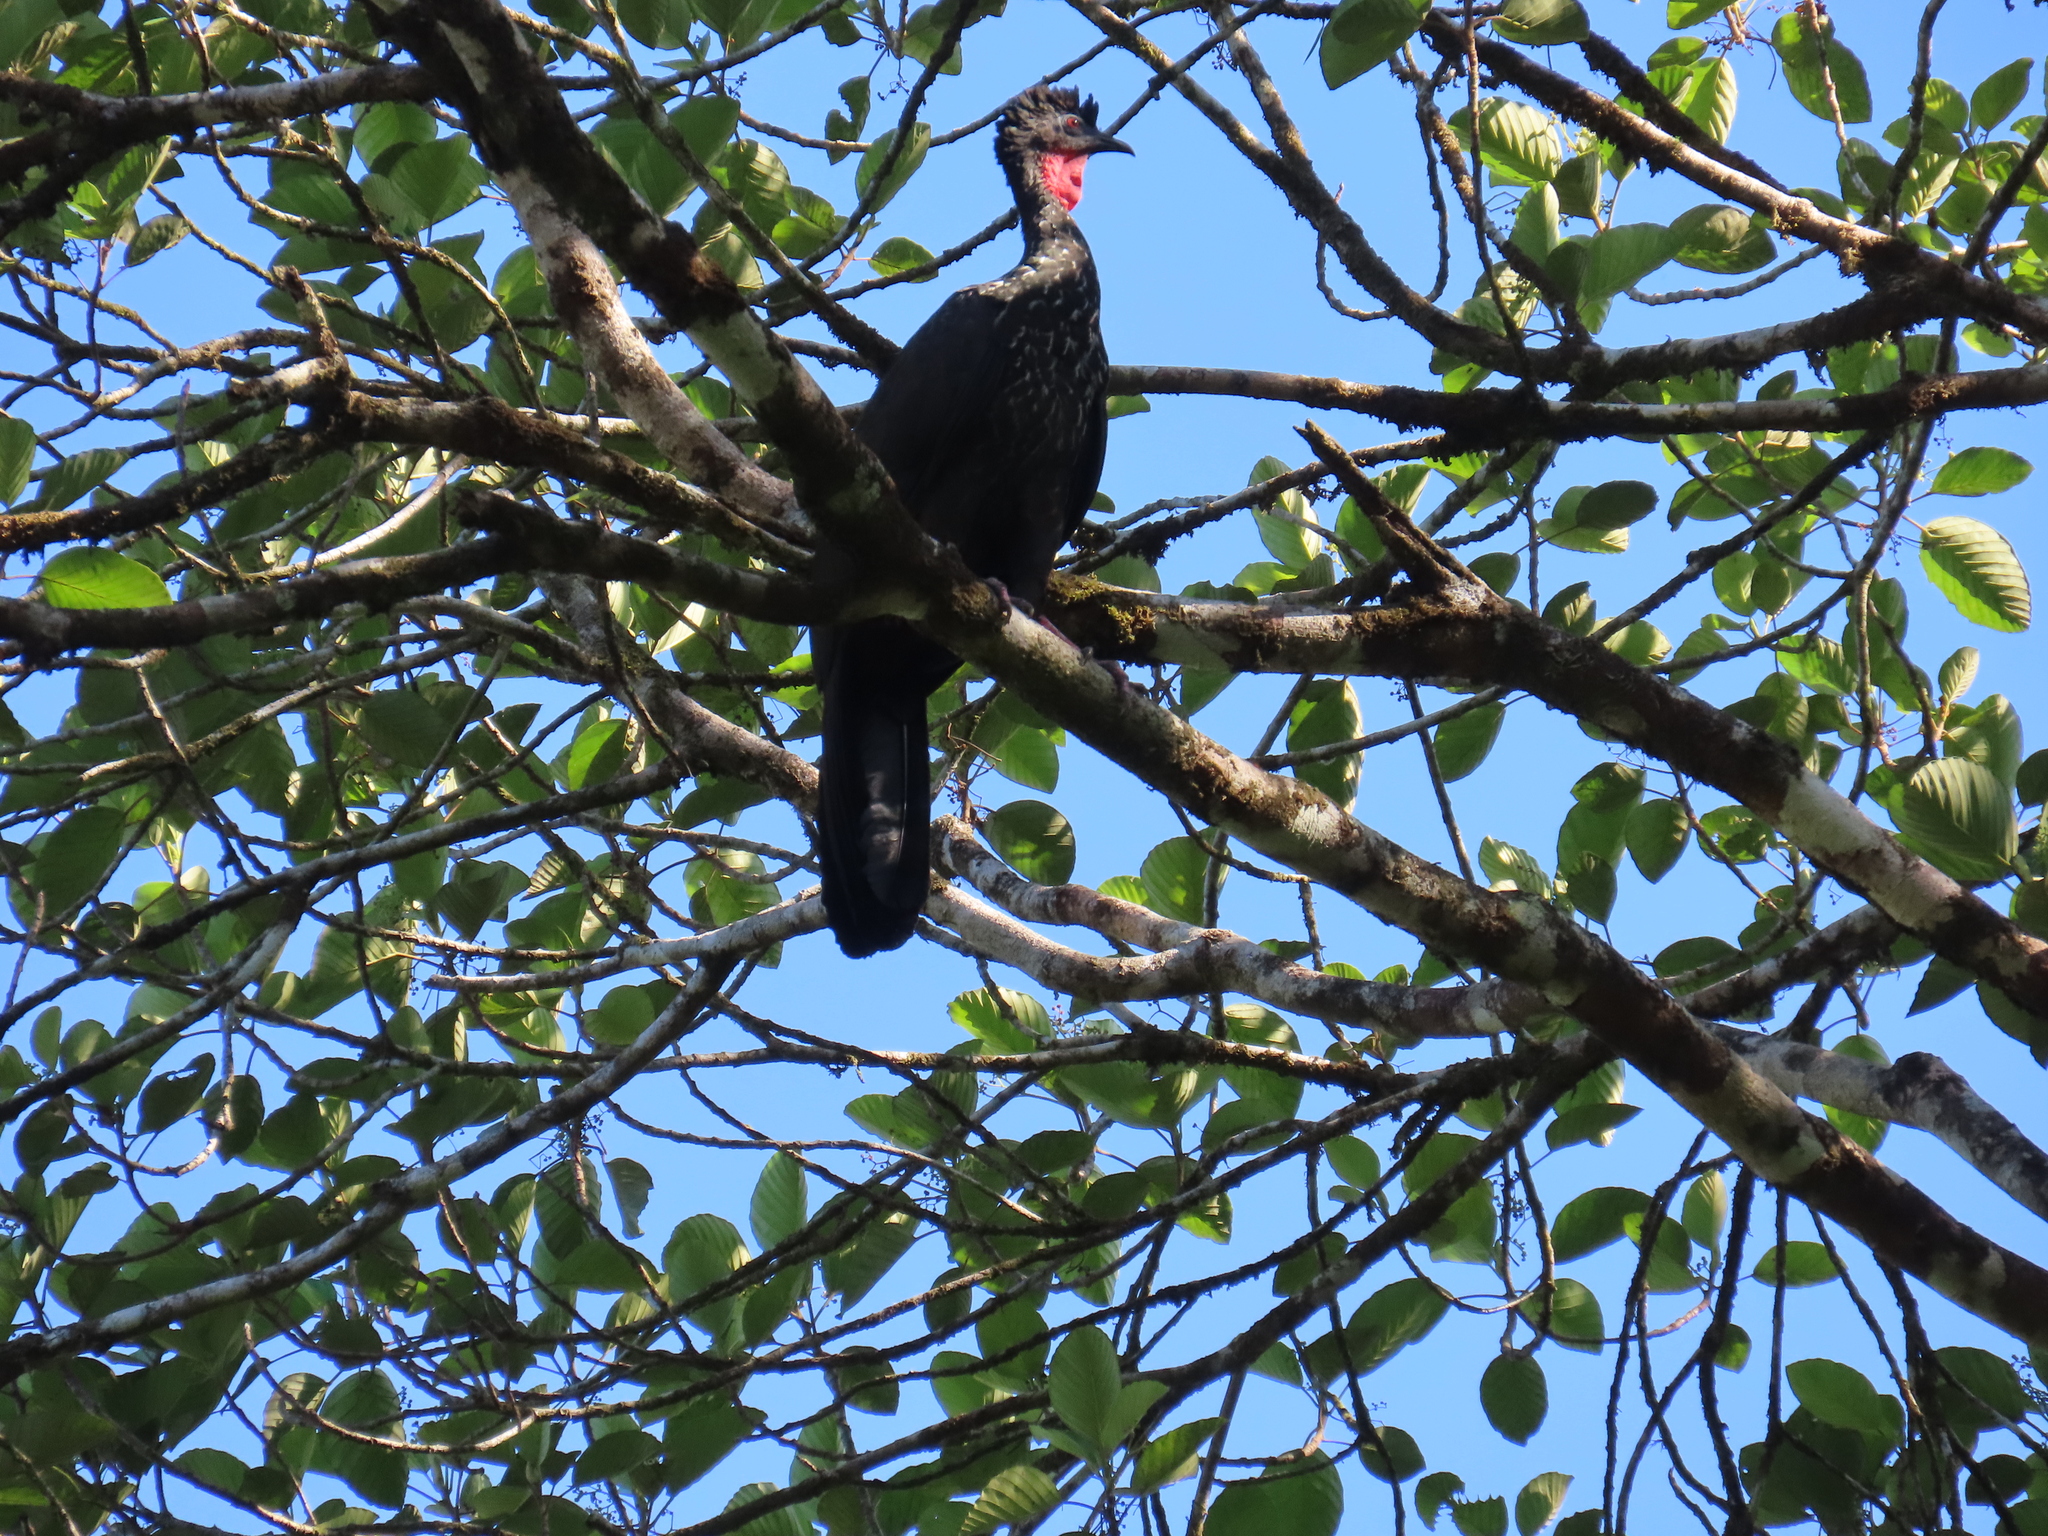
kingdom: Animalia
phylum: Chordata
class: Aves
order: Galliformes
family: Cracidae
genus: Penelope
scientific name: Penelope purpurascens
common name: Crested guan
